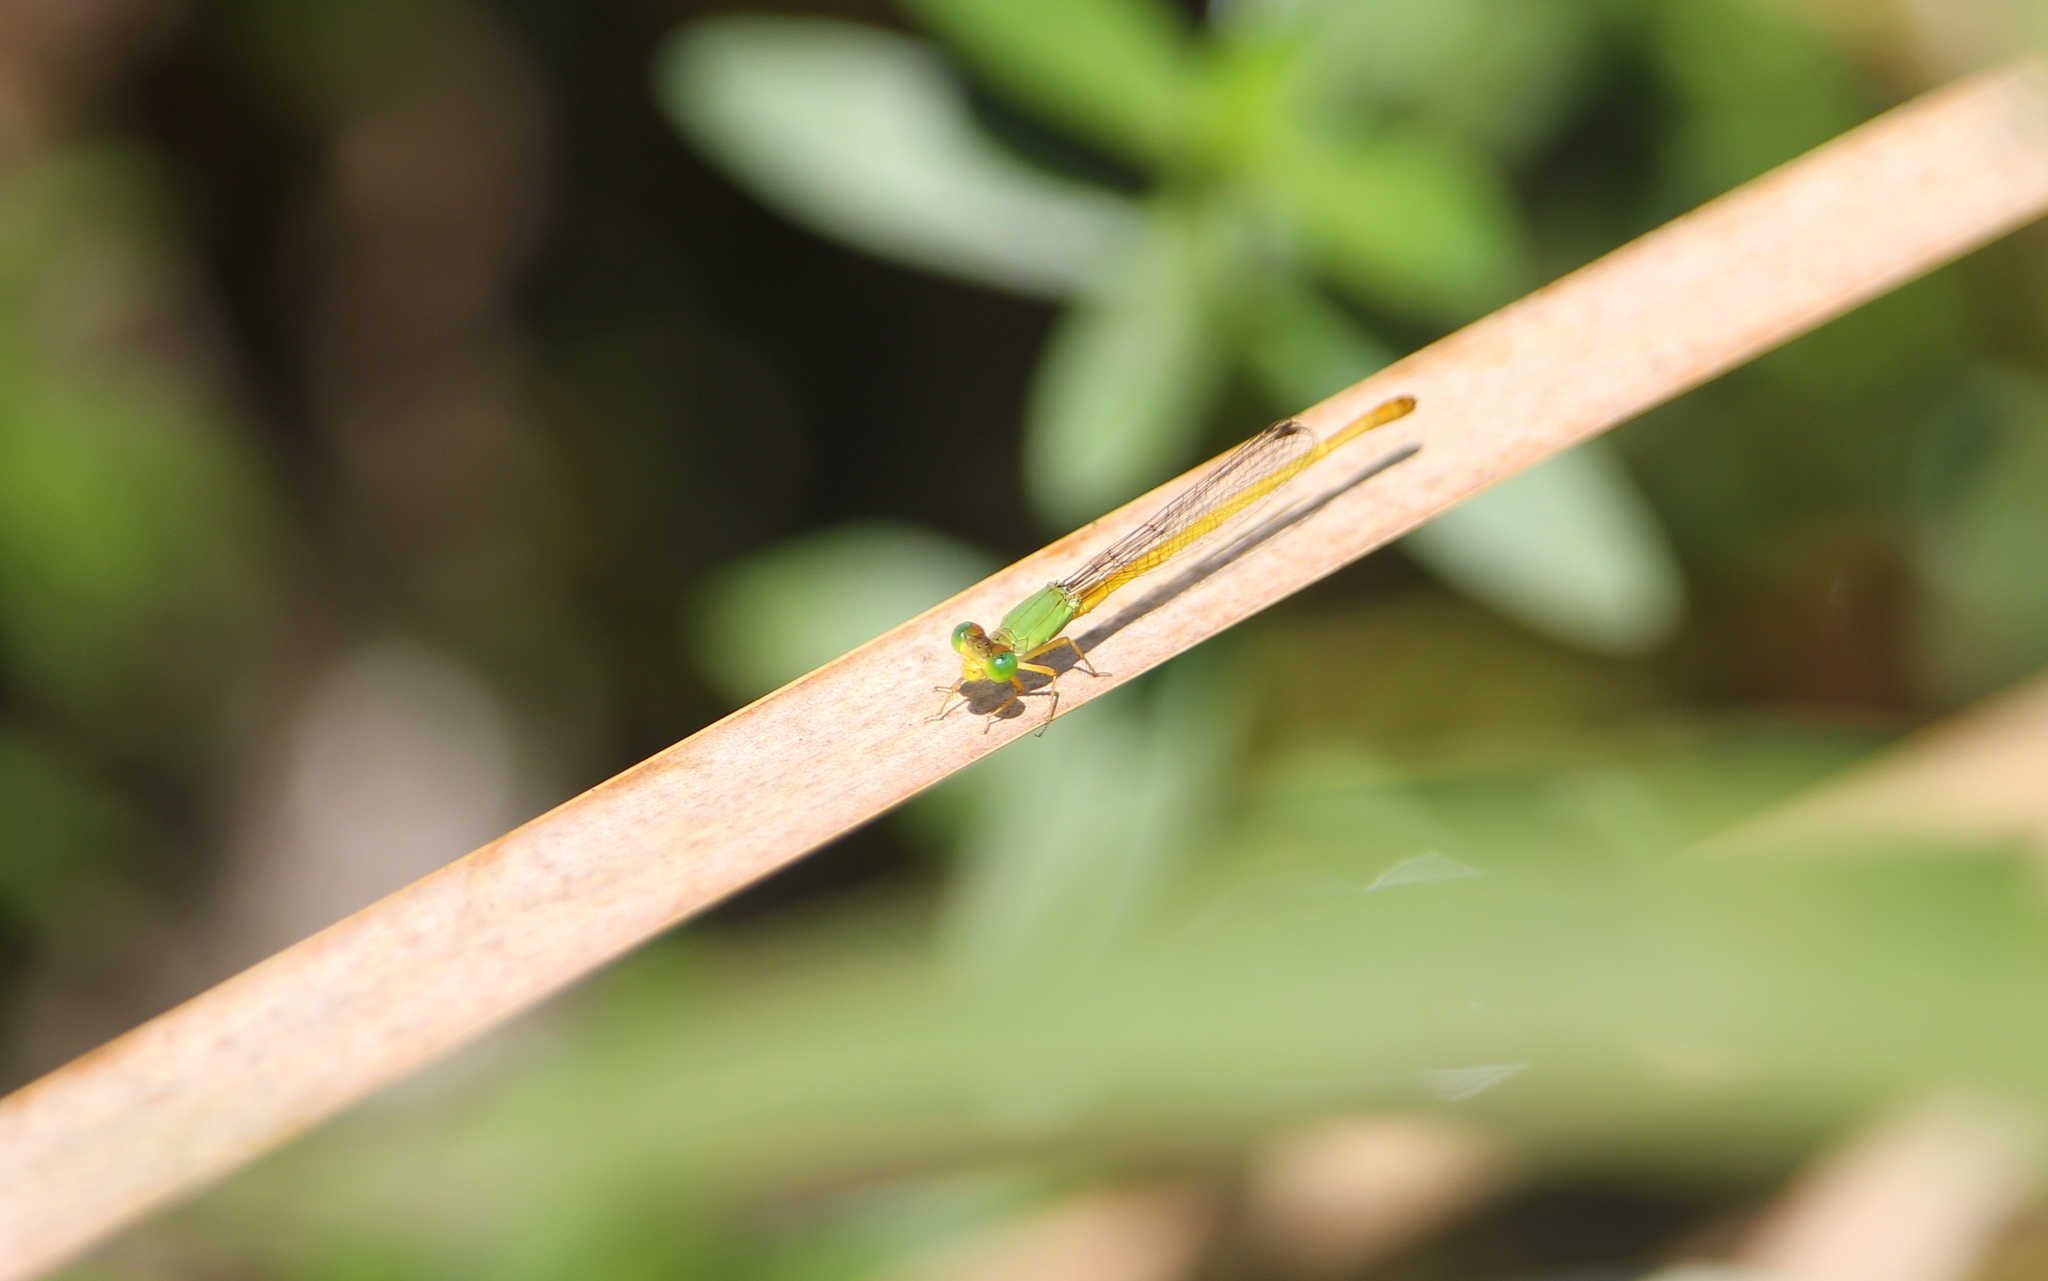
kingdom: Animalia
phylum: Arthropoda
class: Insecta
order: Odonata
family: Coenagrionidae
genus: Ceriagrion
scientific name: Ceriagrion coromandelianum
